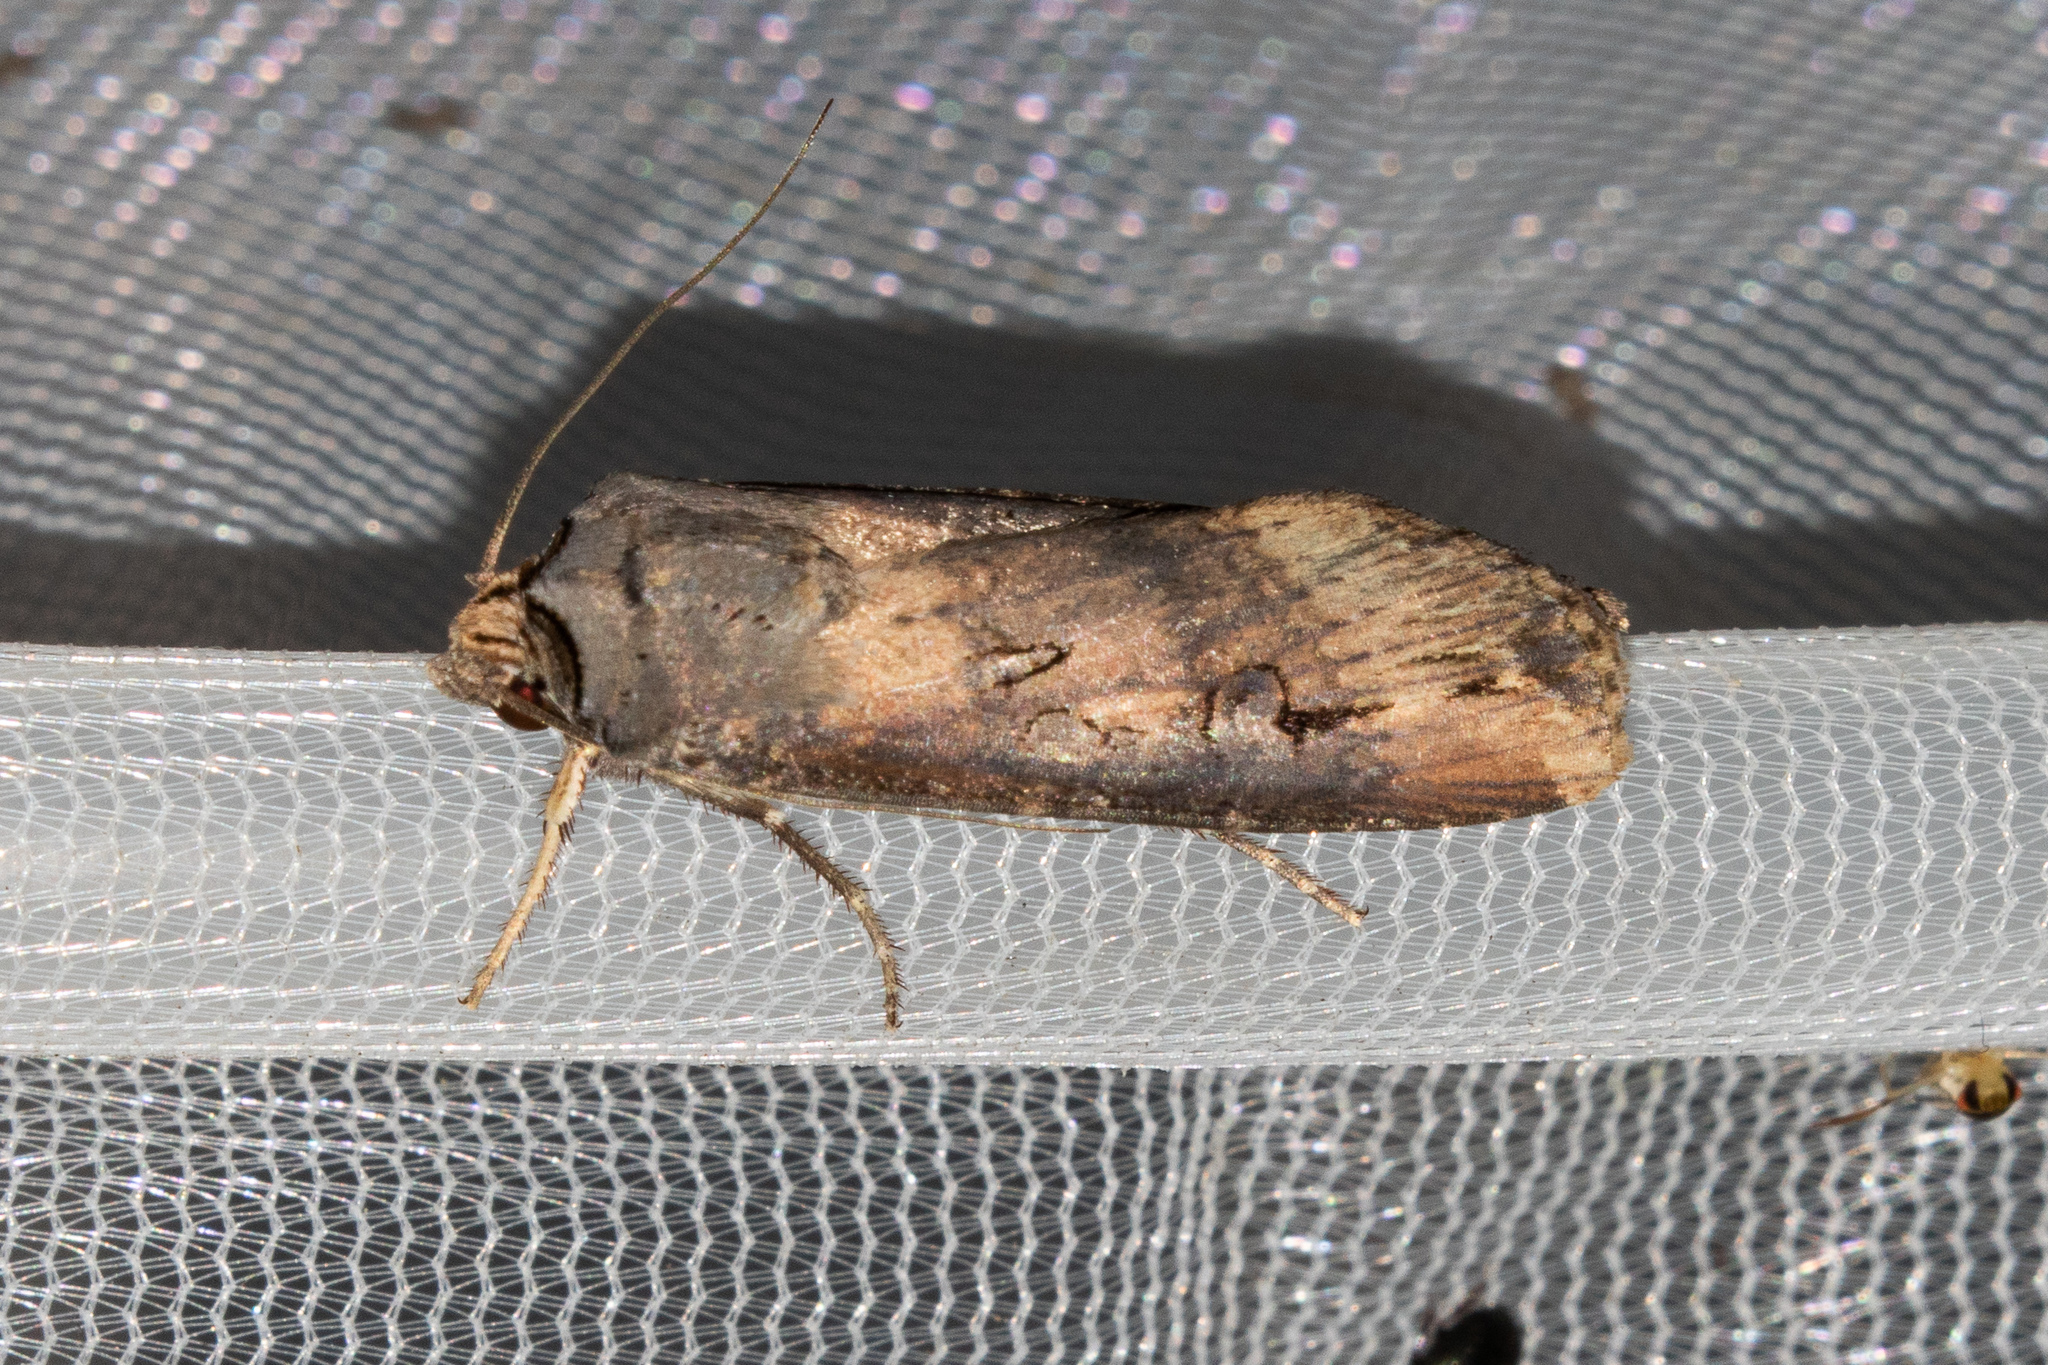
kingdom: Animalia
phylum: Arthropoda
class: Insecta
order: Lepidoptera
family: Noctuidae
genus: Agrotis
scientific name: Agrotis ipsilon
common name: Dark sword-grass
